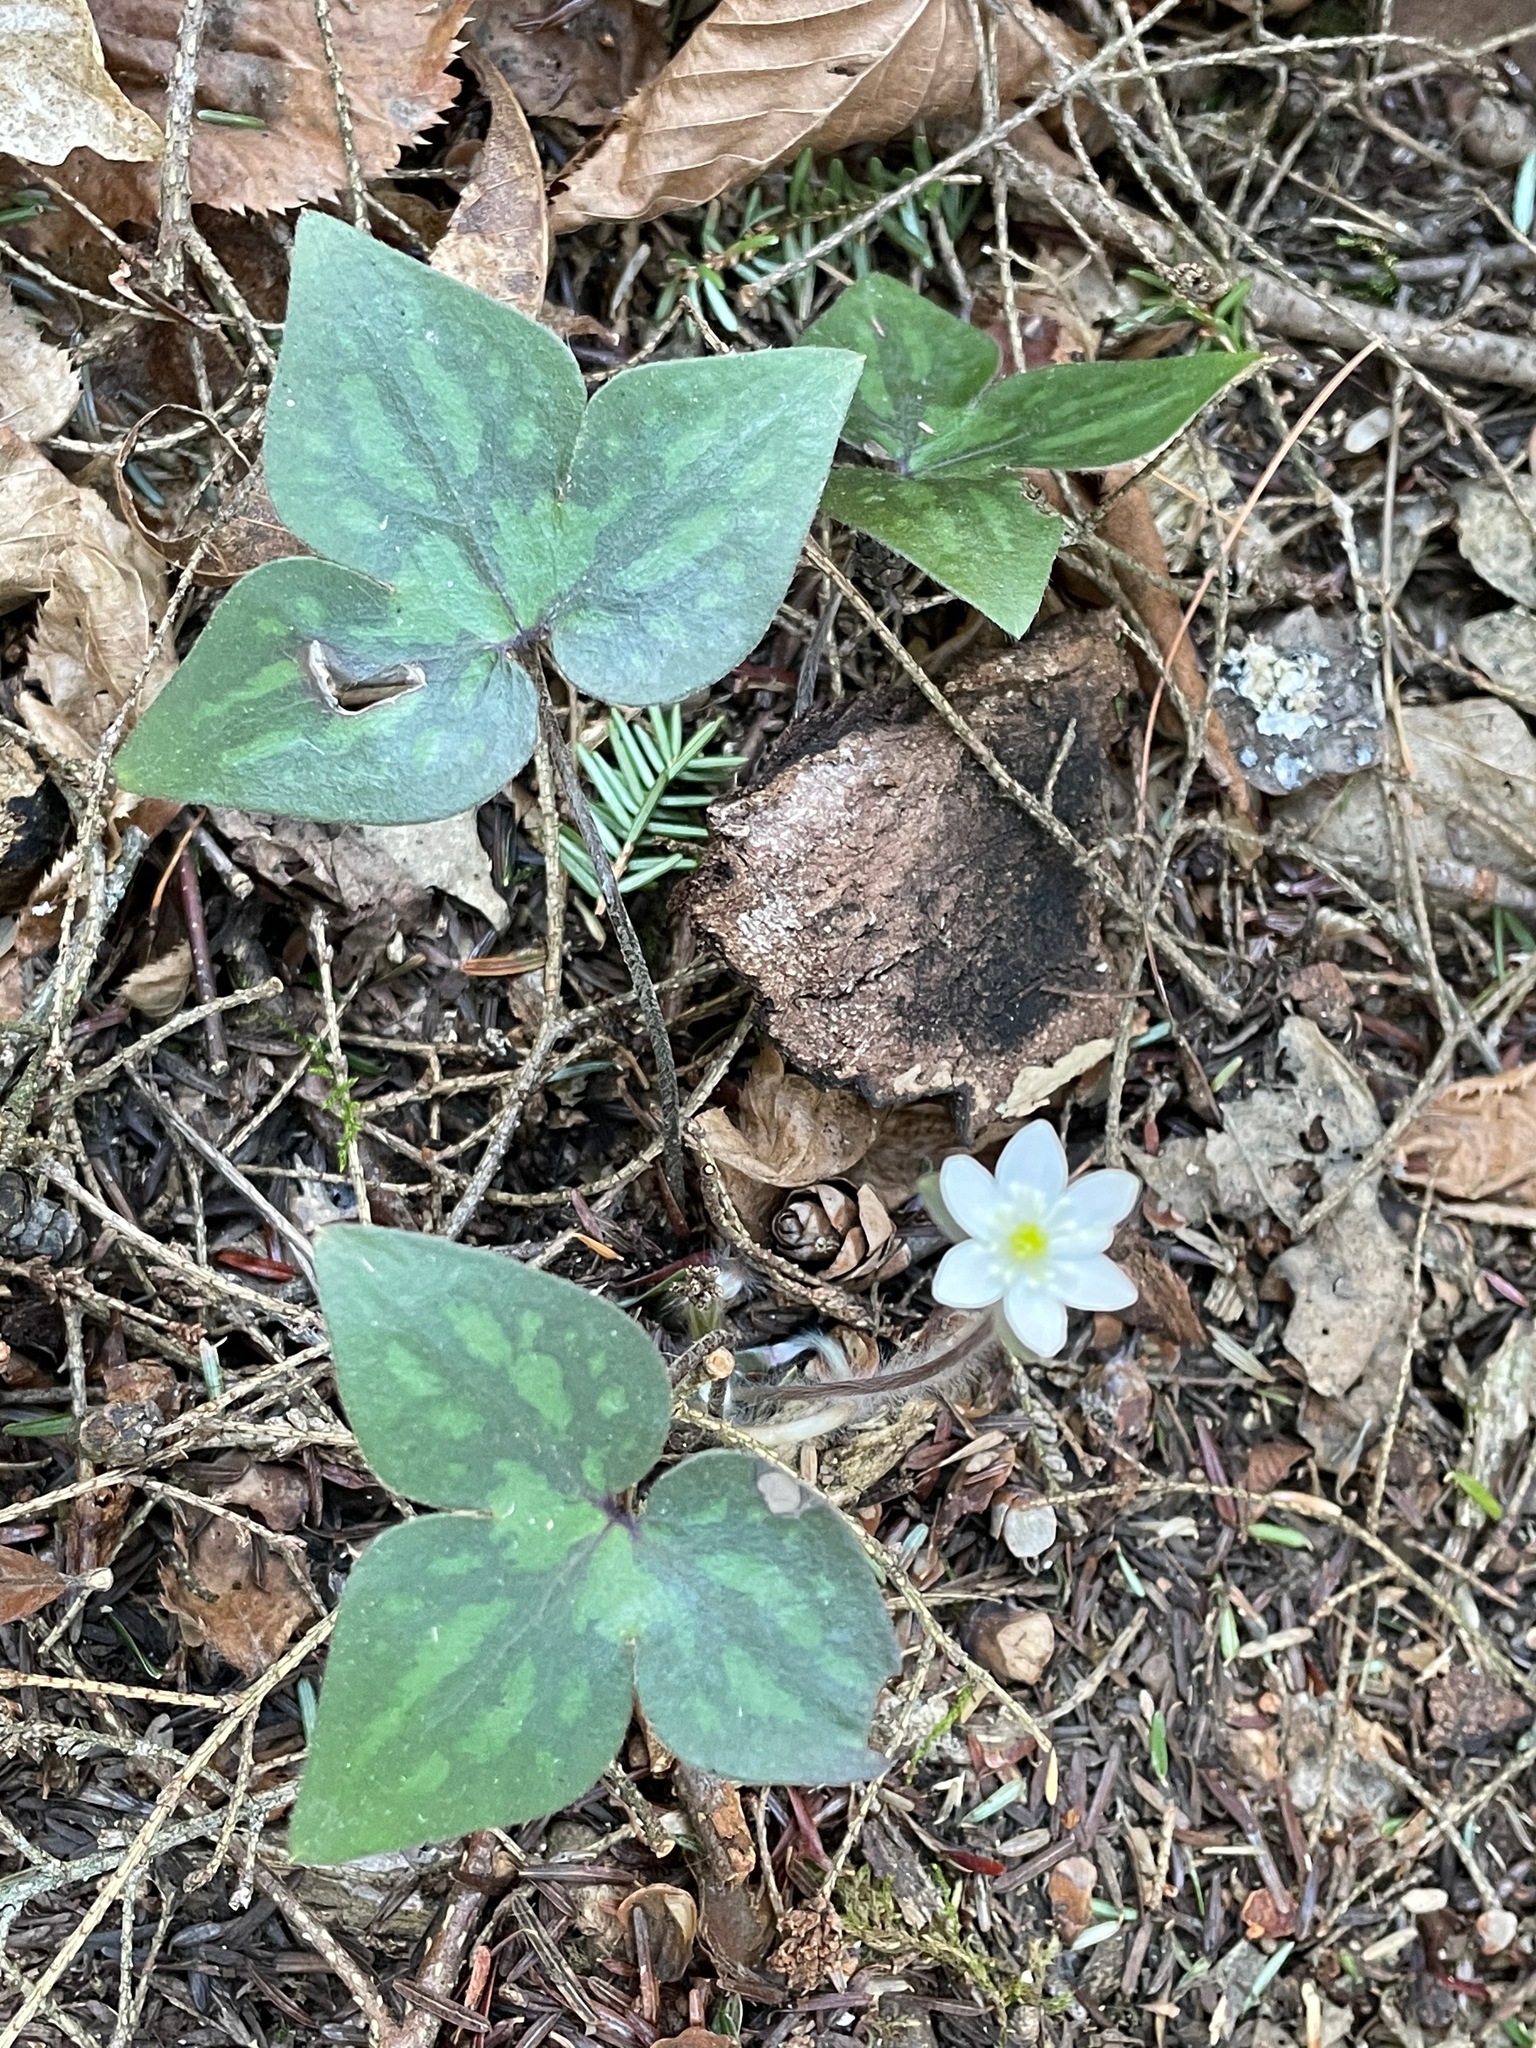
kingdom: Plantae
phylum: Tracheophyta
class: Magnoliopsida
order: Ranunculales
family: Ranunculaceae
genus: Hepatica
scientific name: Hepatica acutiloba
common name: Sharp-lobed hepatica
